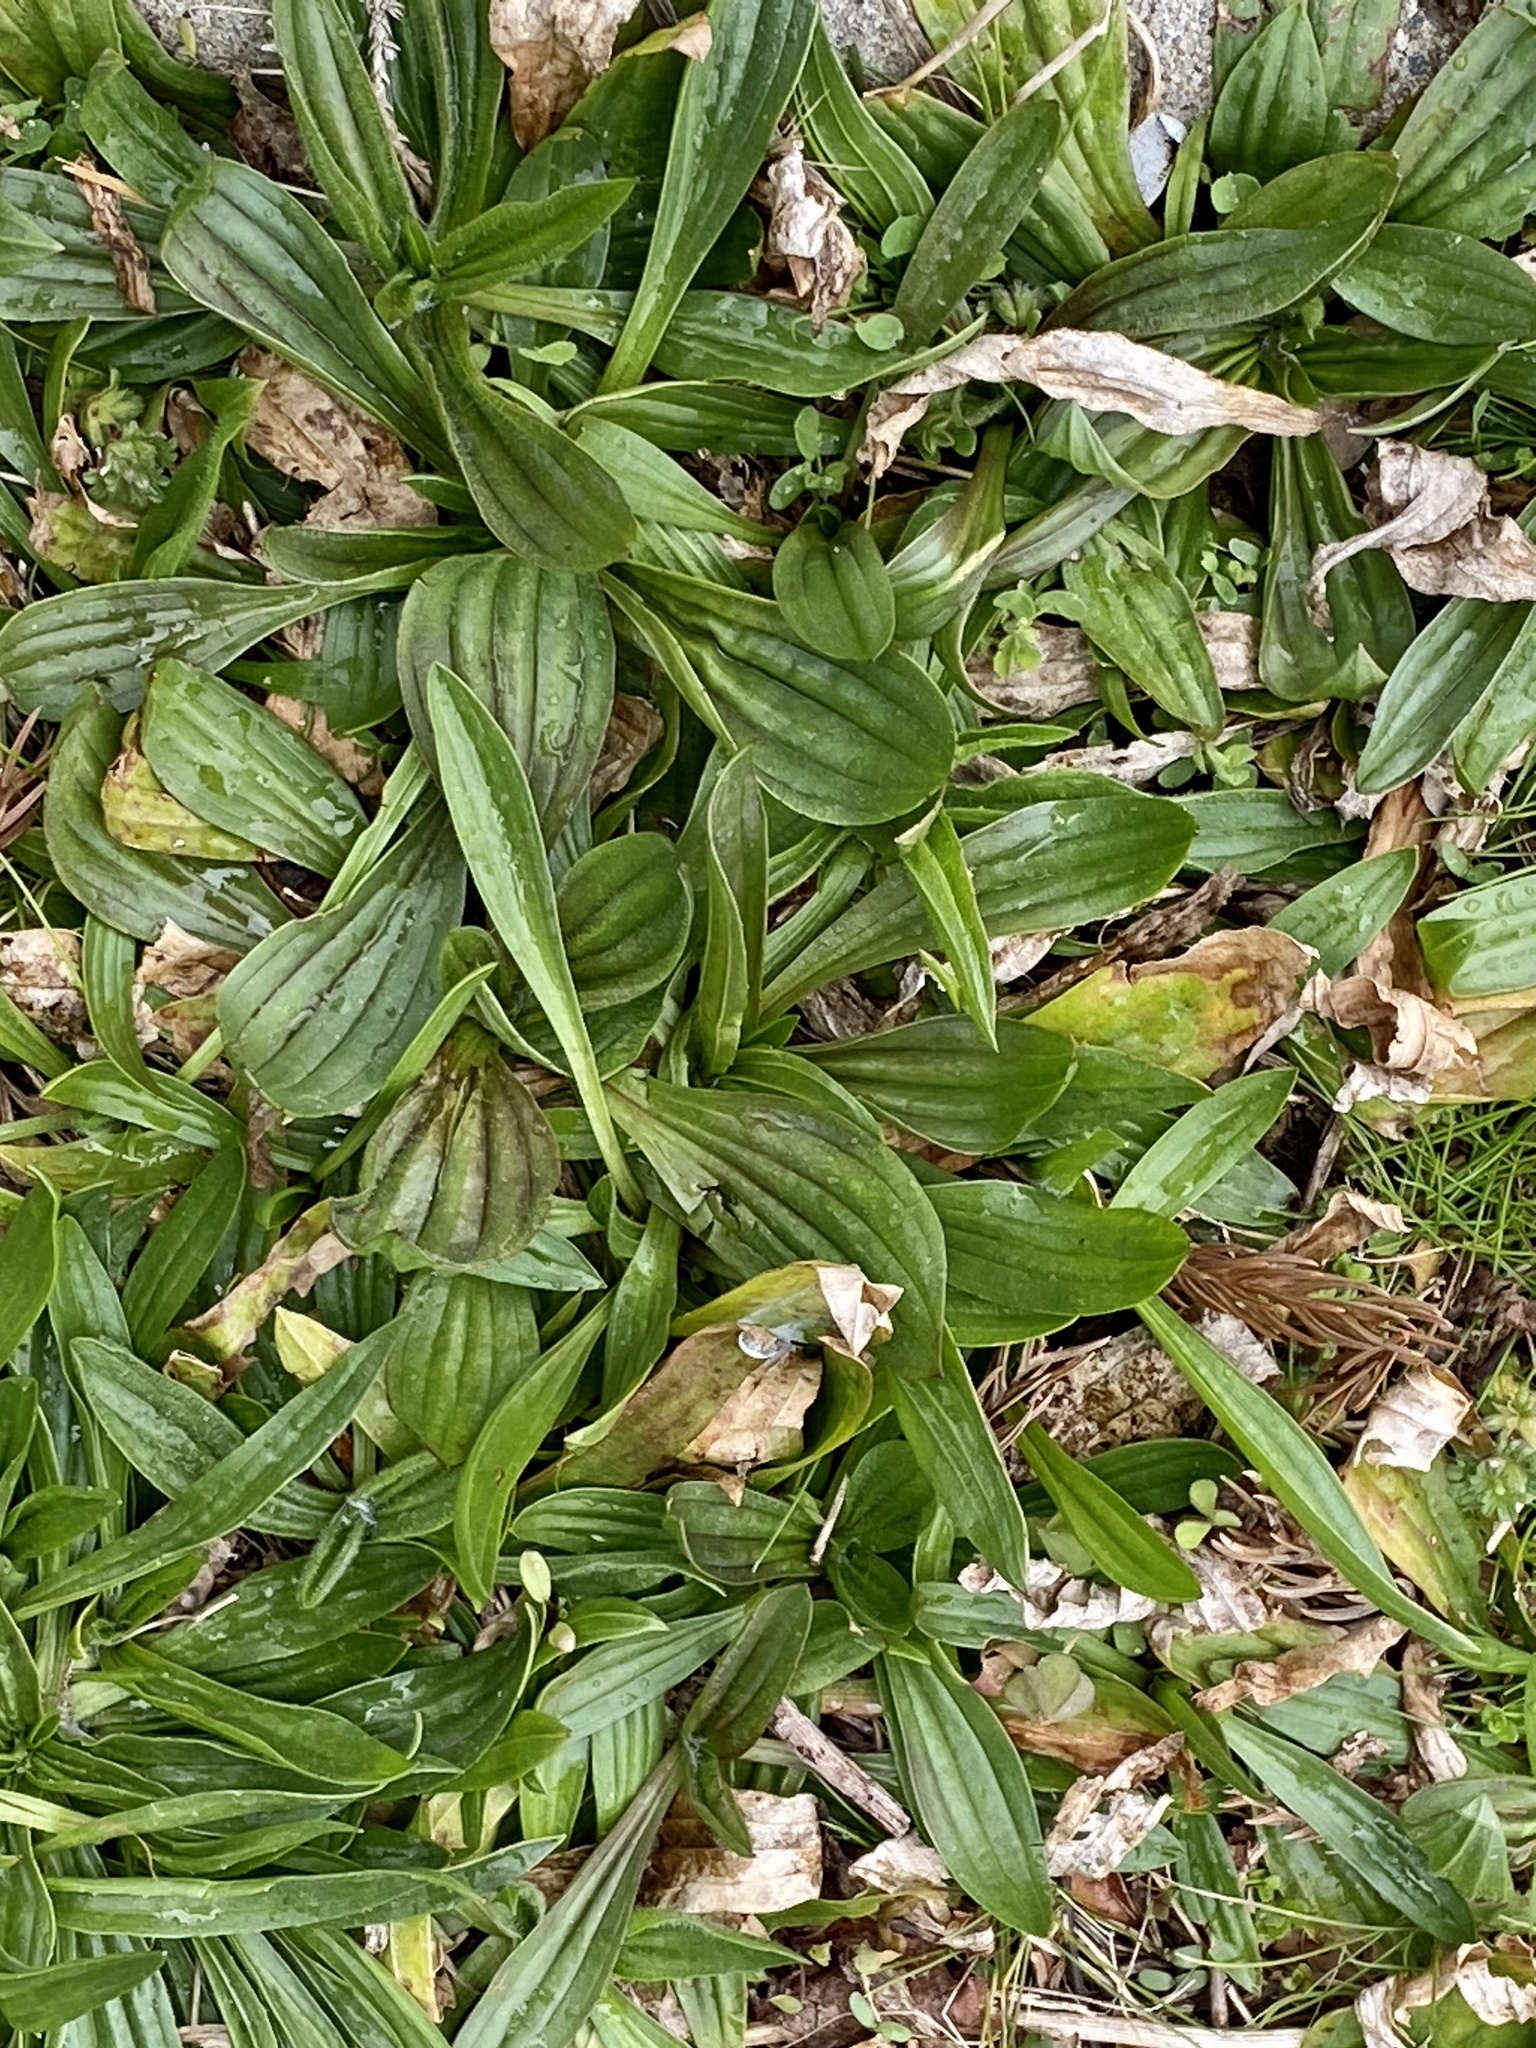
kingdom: Plantae
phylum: Tracheophyta
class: Magnoliopsida
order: Lamiales
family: Plantaginaceae
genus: Plantago
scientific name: Plantago lanceolata
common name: Ribwort plantain
